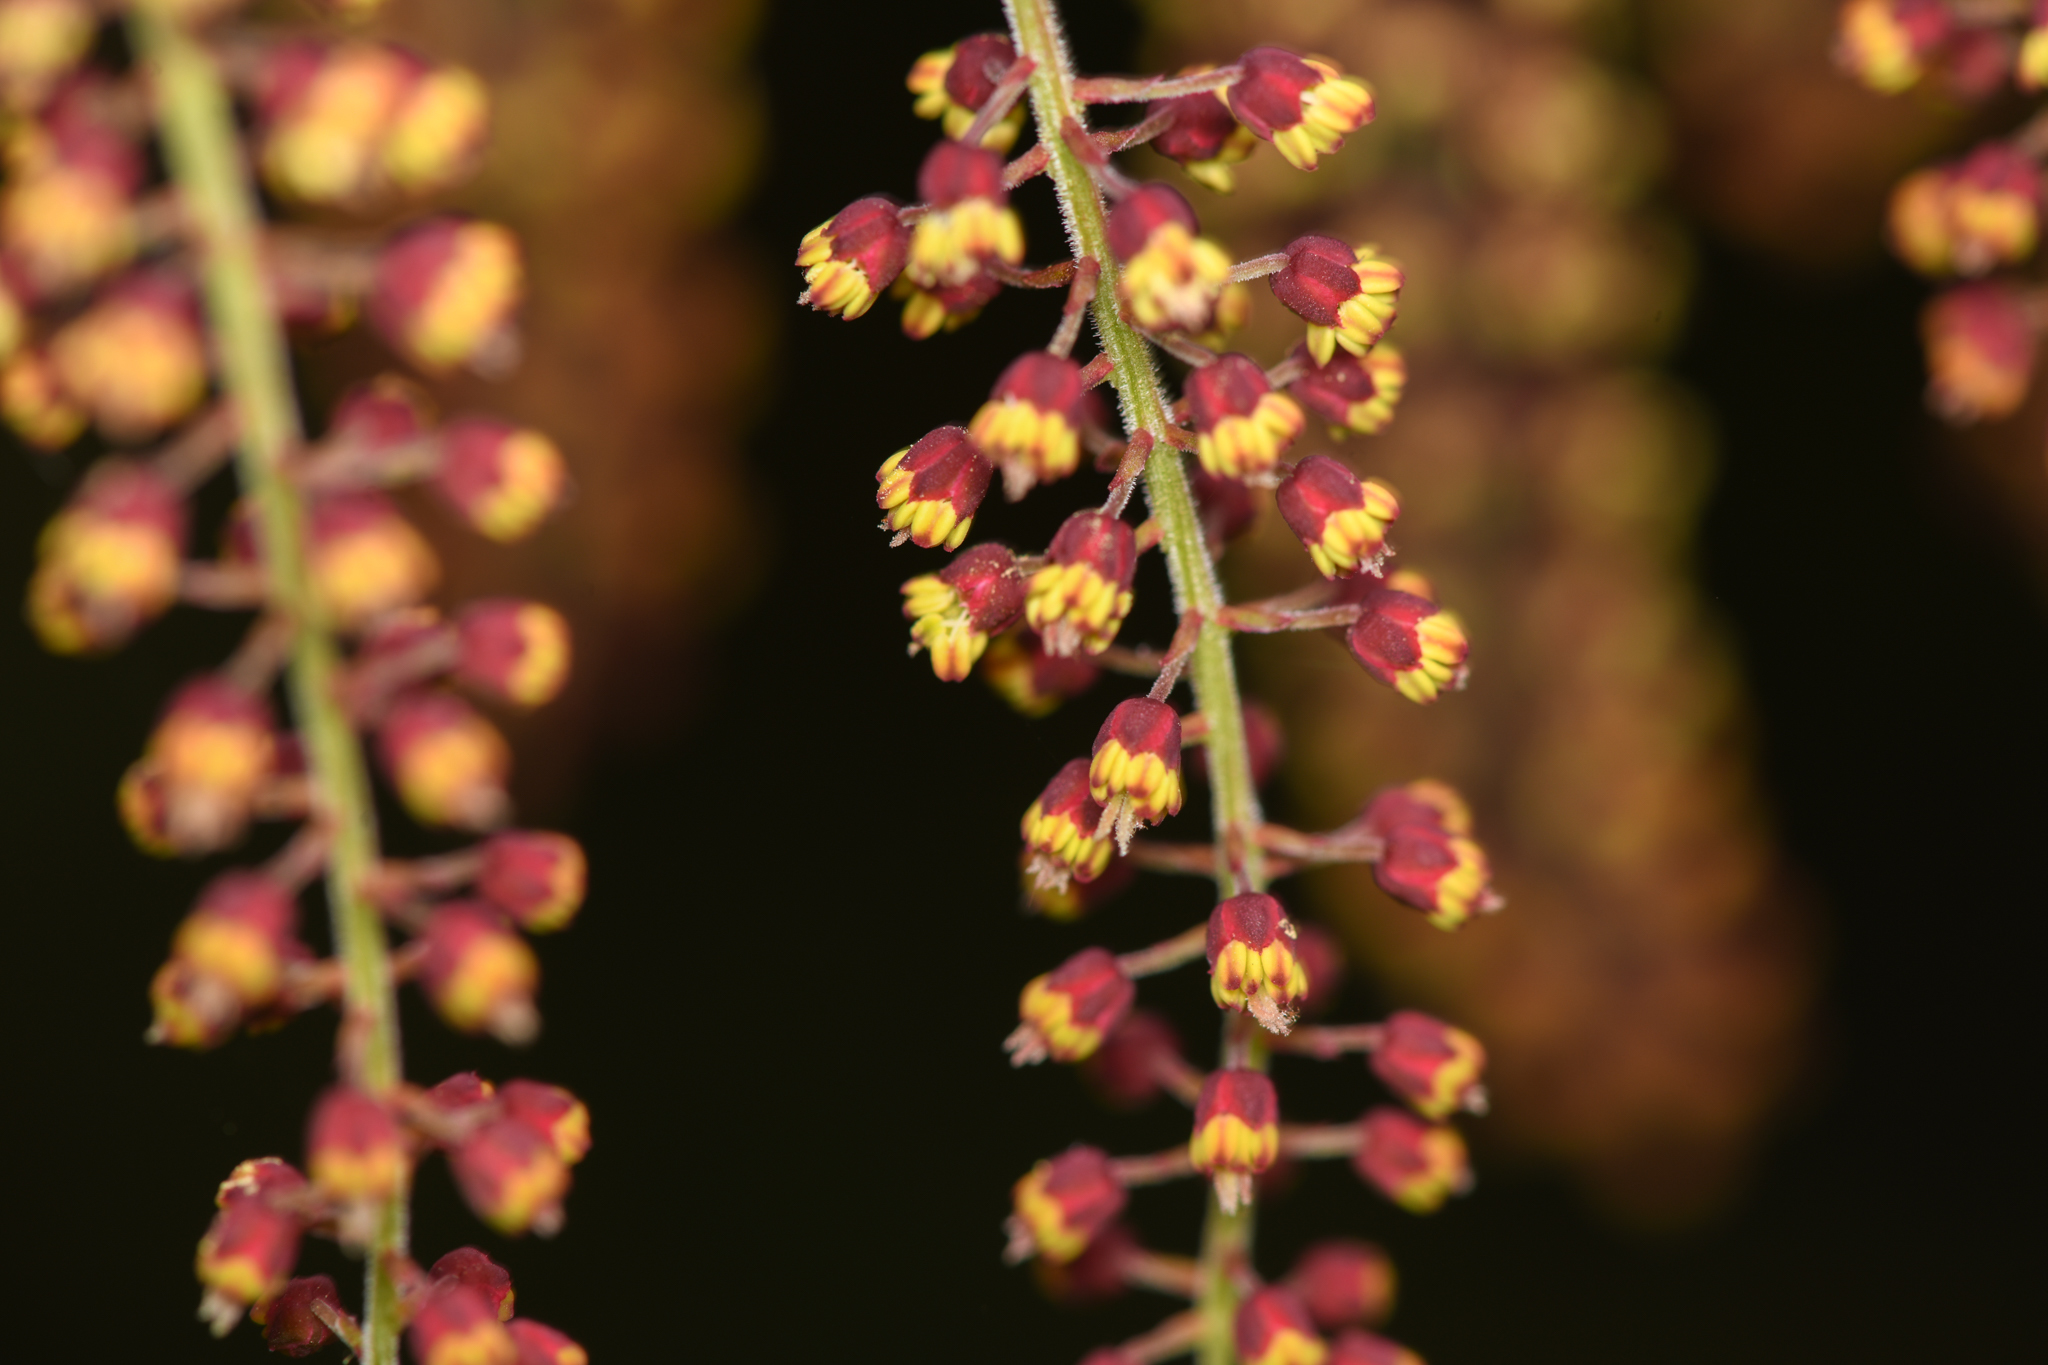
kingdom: Plantae
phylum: Tracheophyta
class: Magnoliopsida
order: Cucurbitales
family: Coriariaceae
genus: Coriaria
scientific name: Coriaria ruscifolia
